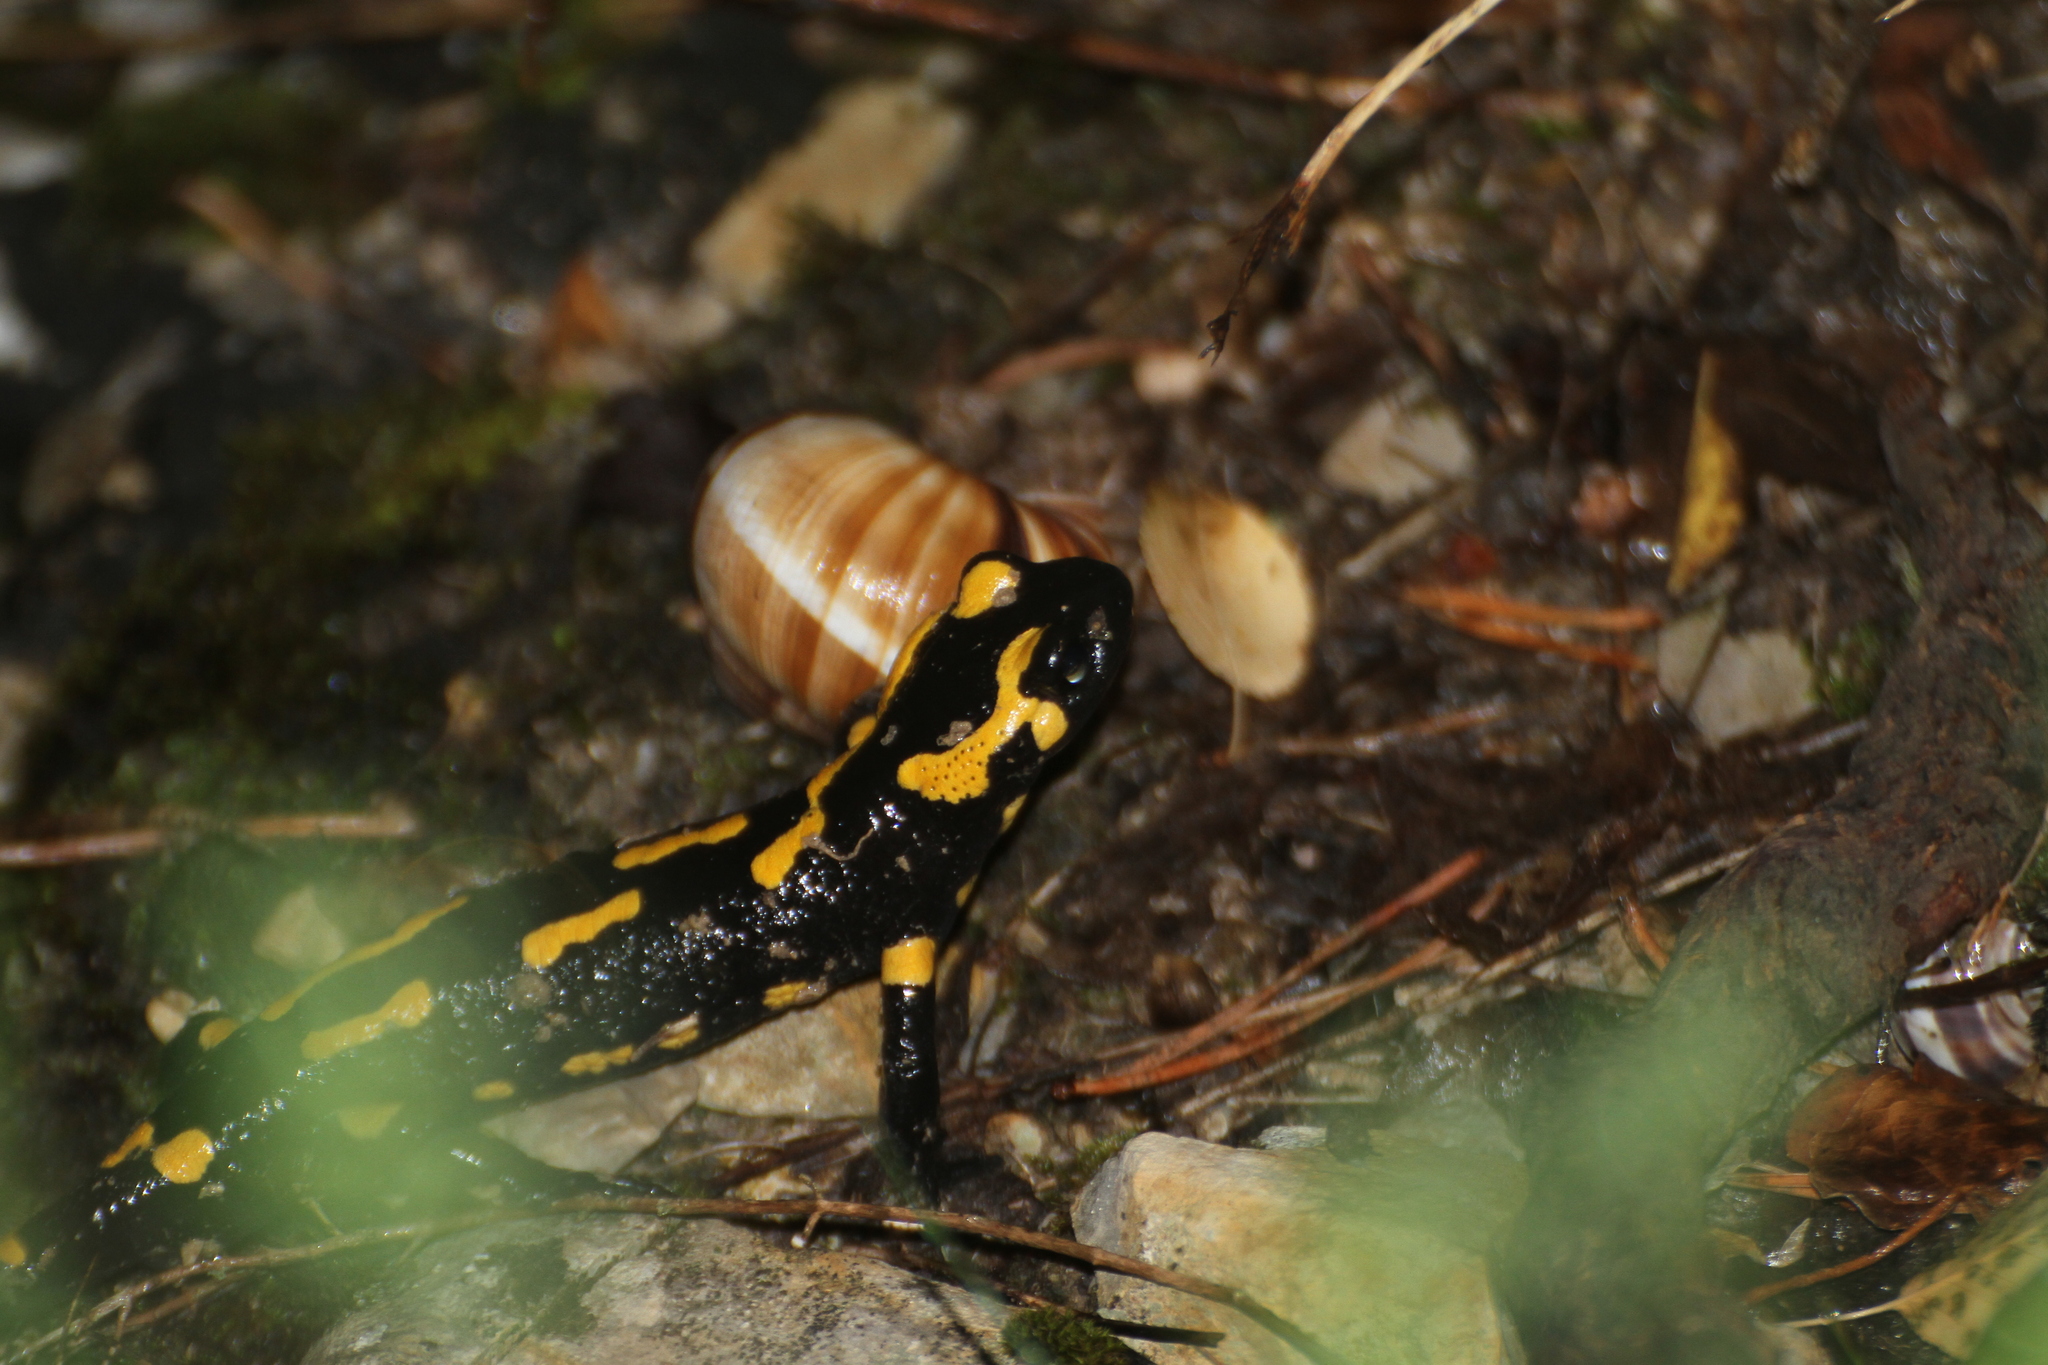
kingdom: Animalia
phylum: Chordata
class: Amphibia
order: Caudata
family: Salamandridae
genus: Salamandra
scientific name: Salamandra salamandra
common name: Fire salamander
